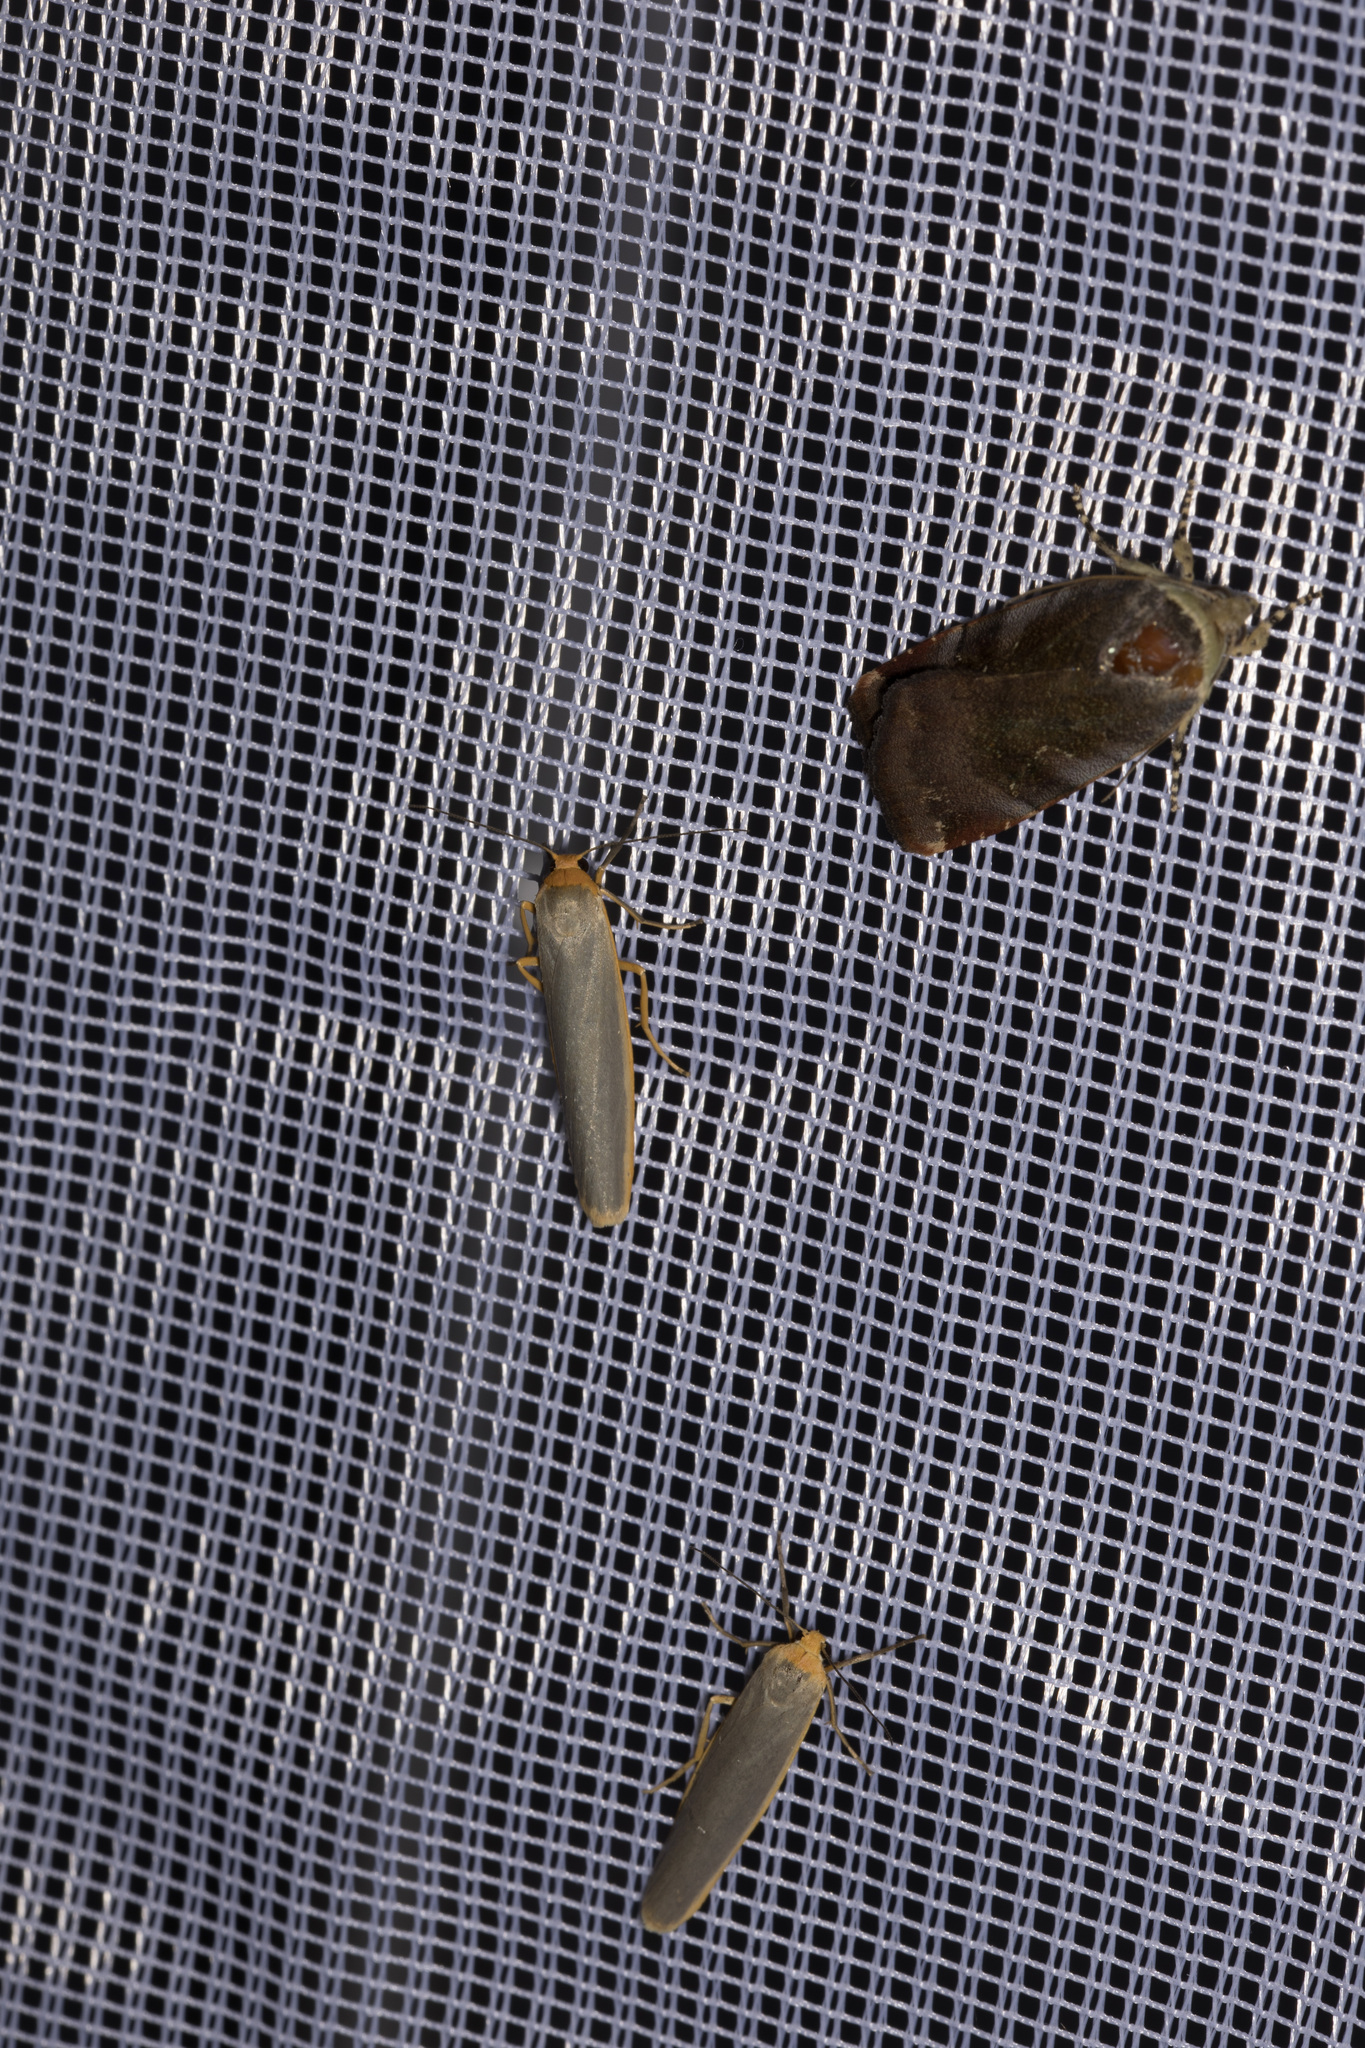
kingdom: Animalia
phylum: Arthropoda
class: Insecta
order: Lepidoptera
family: Erebidae
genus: Manulea
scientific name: Manulea complana
